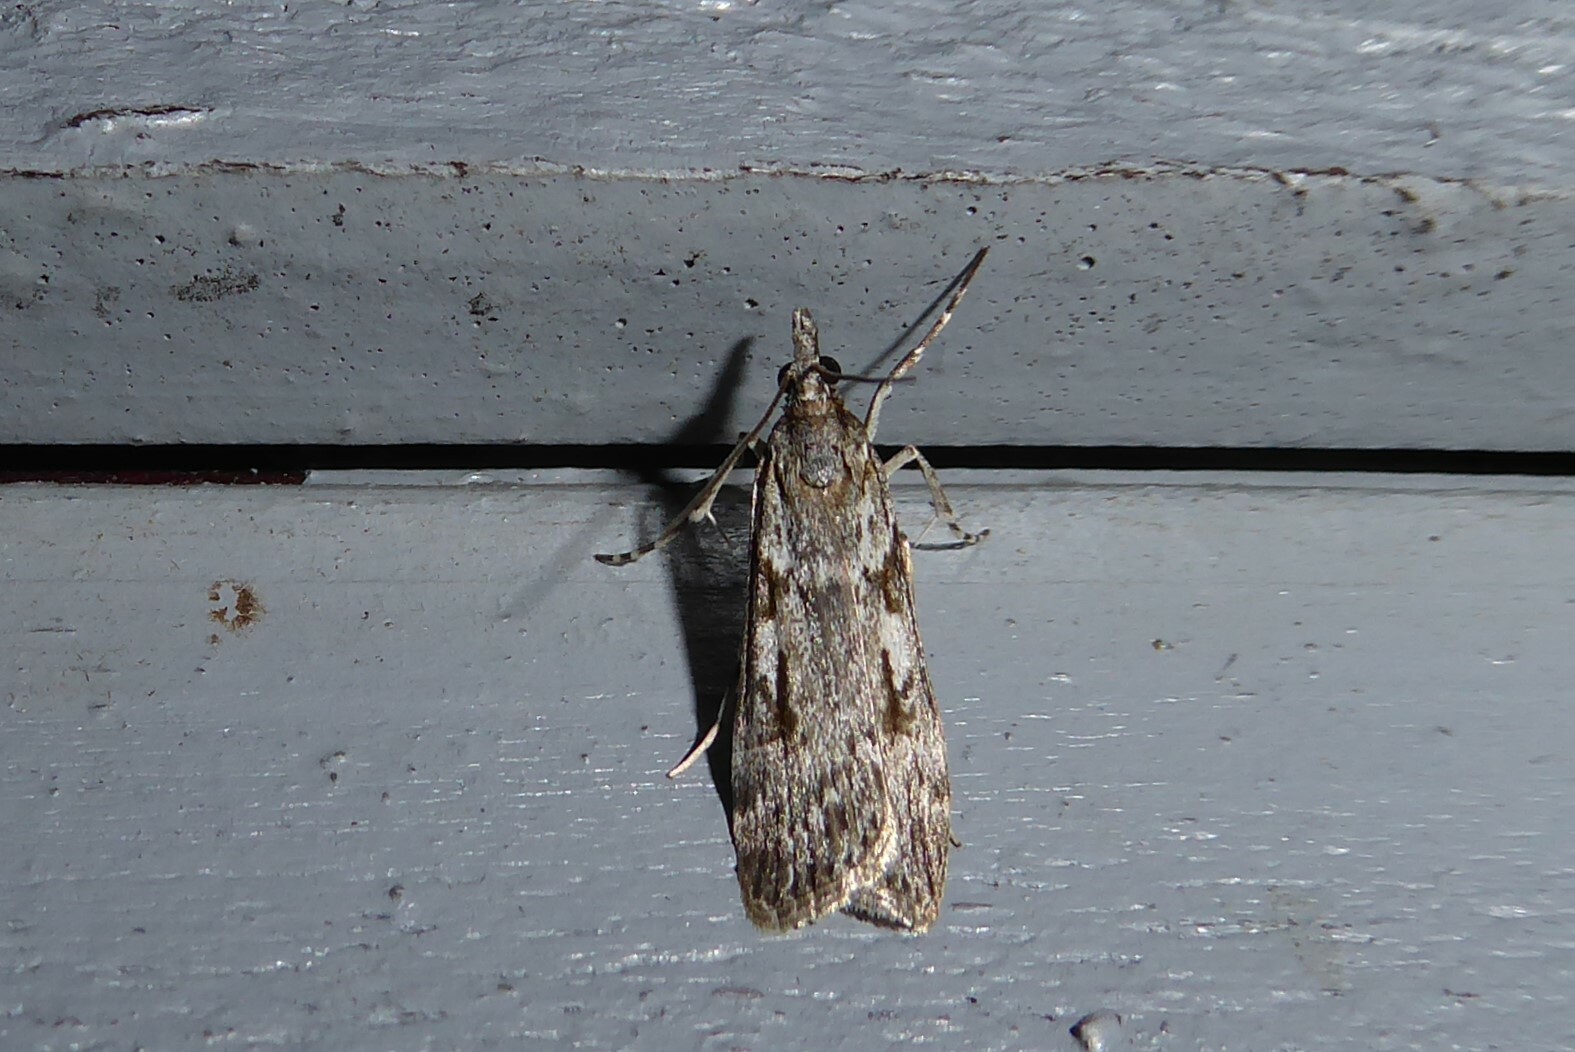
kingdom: Animalia
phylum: Arthropoda
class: Insecta
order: Lepidoptera
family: Crambidae
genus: Scoparia
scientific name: Scoparia halopis
